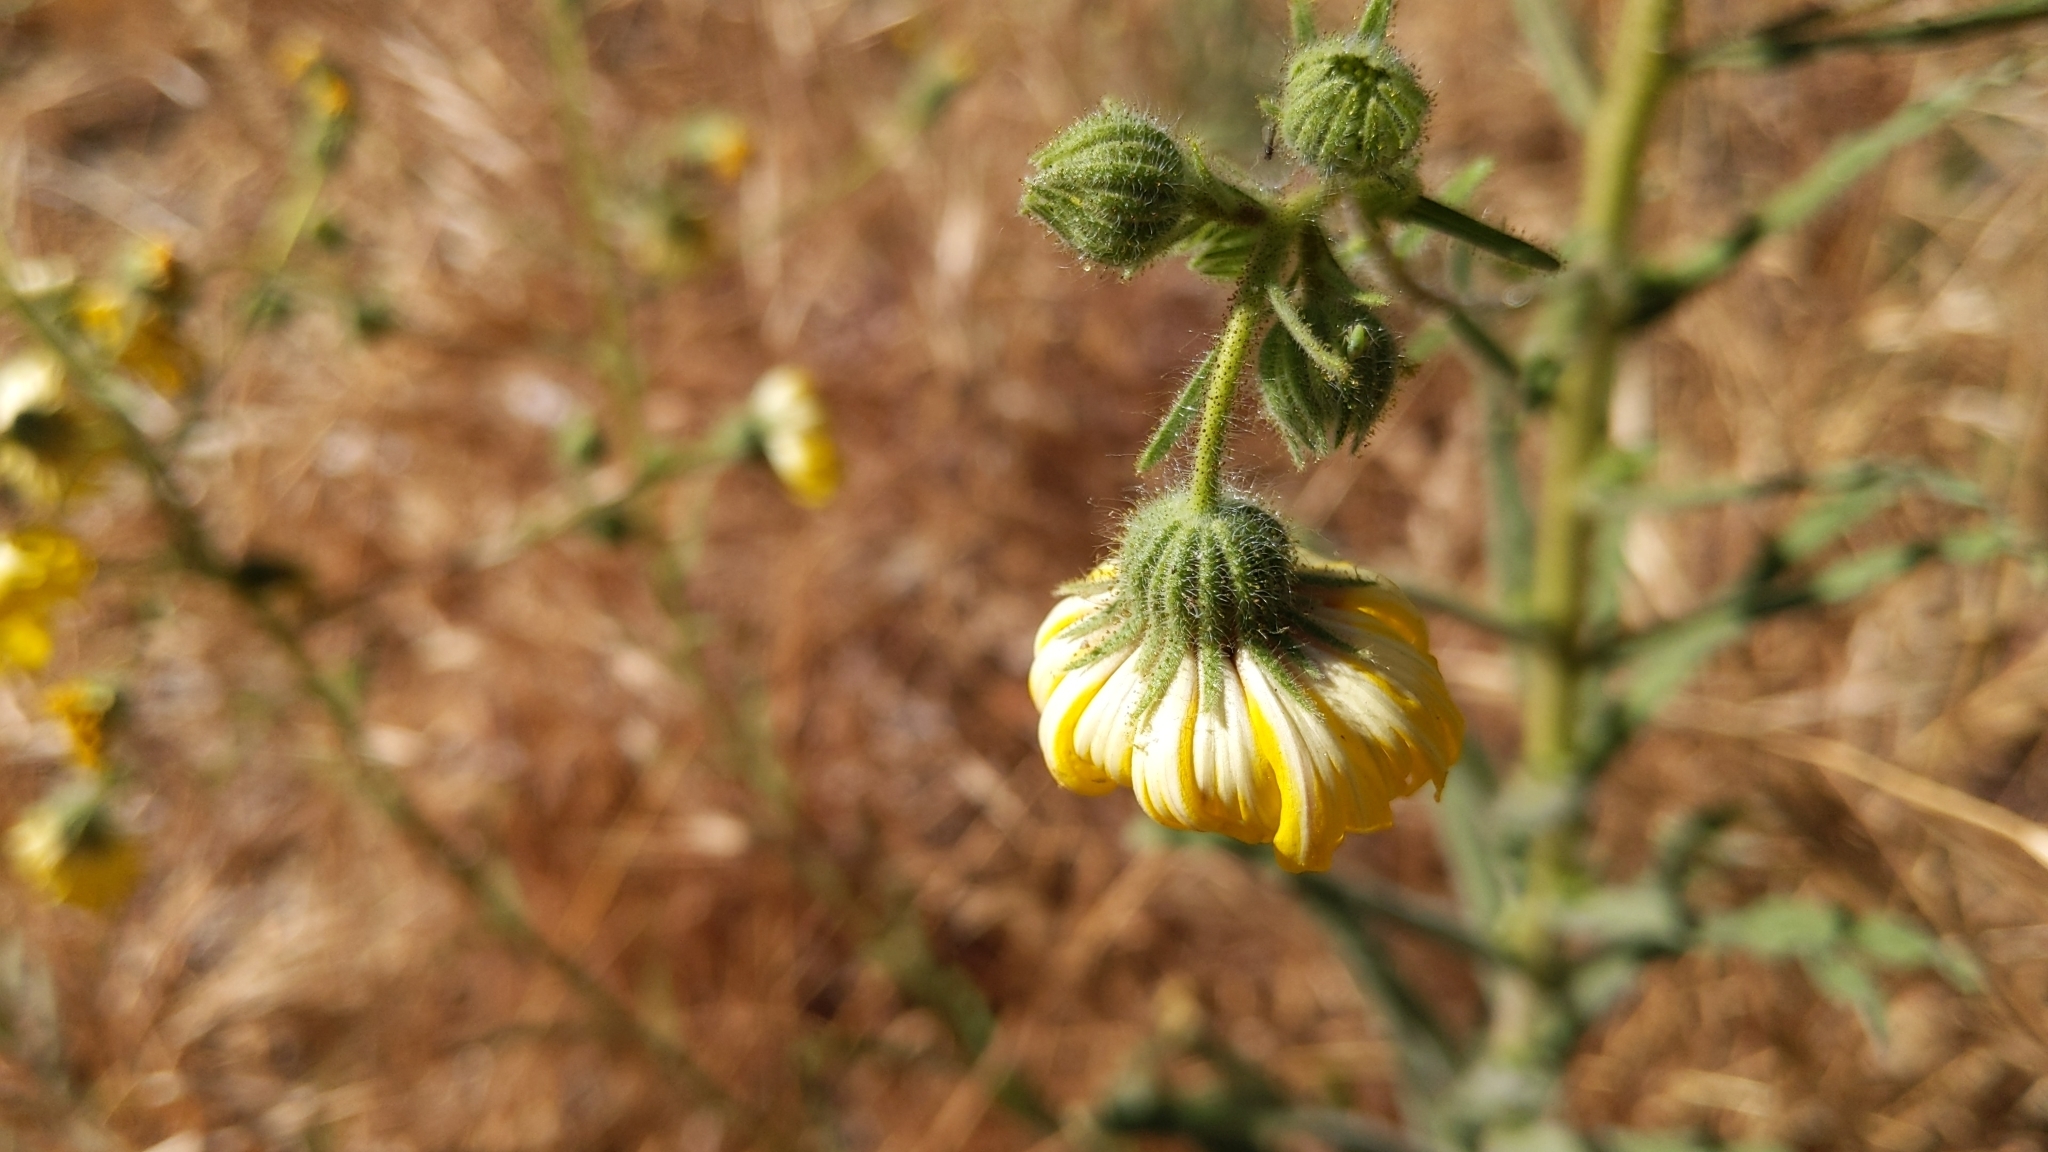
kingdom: Plantae
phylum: Tracheophyta
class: Magnoliopsida
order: Asterales
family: Asteraceae
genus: Madia
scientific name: Madia elegans
